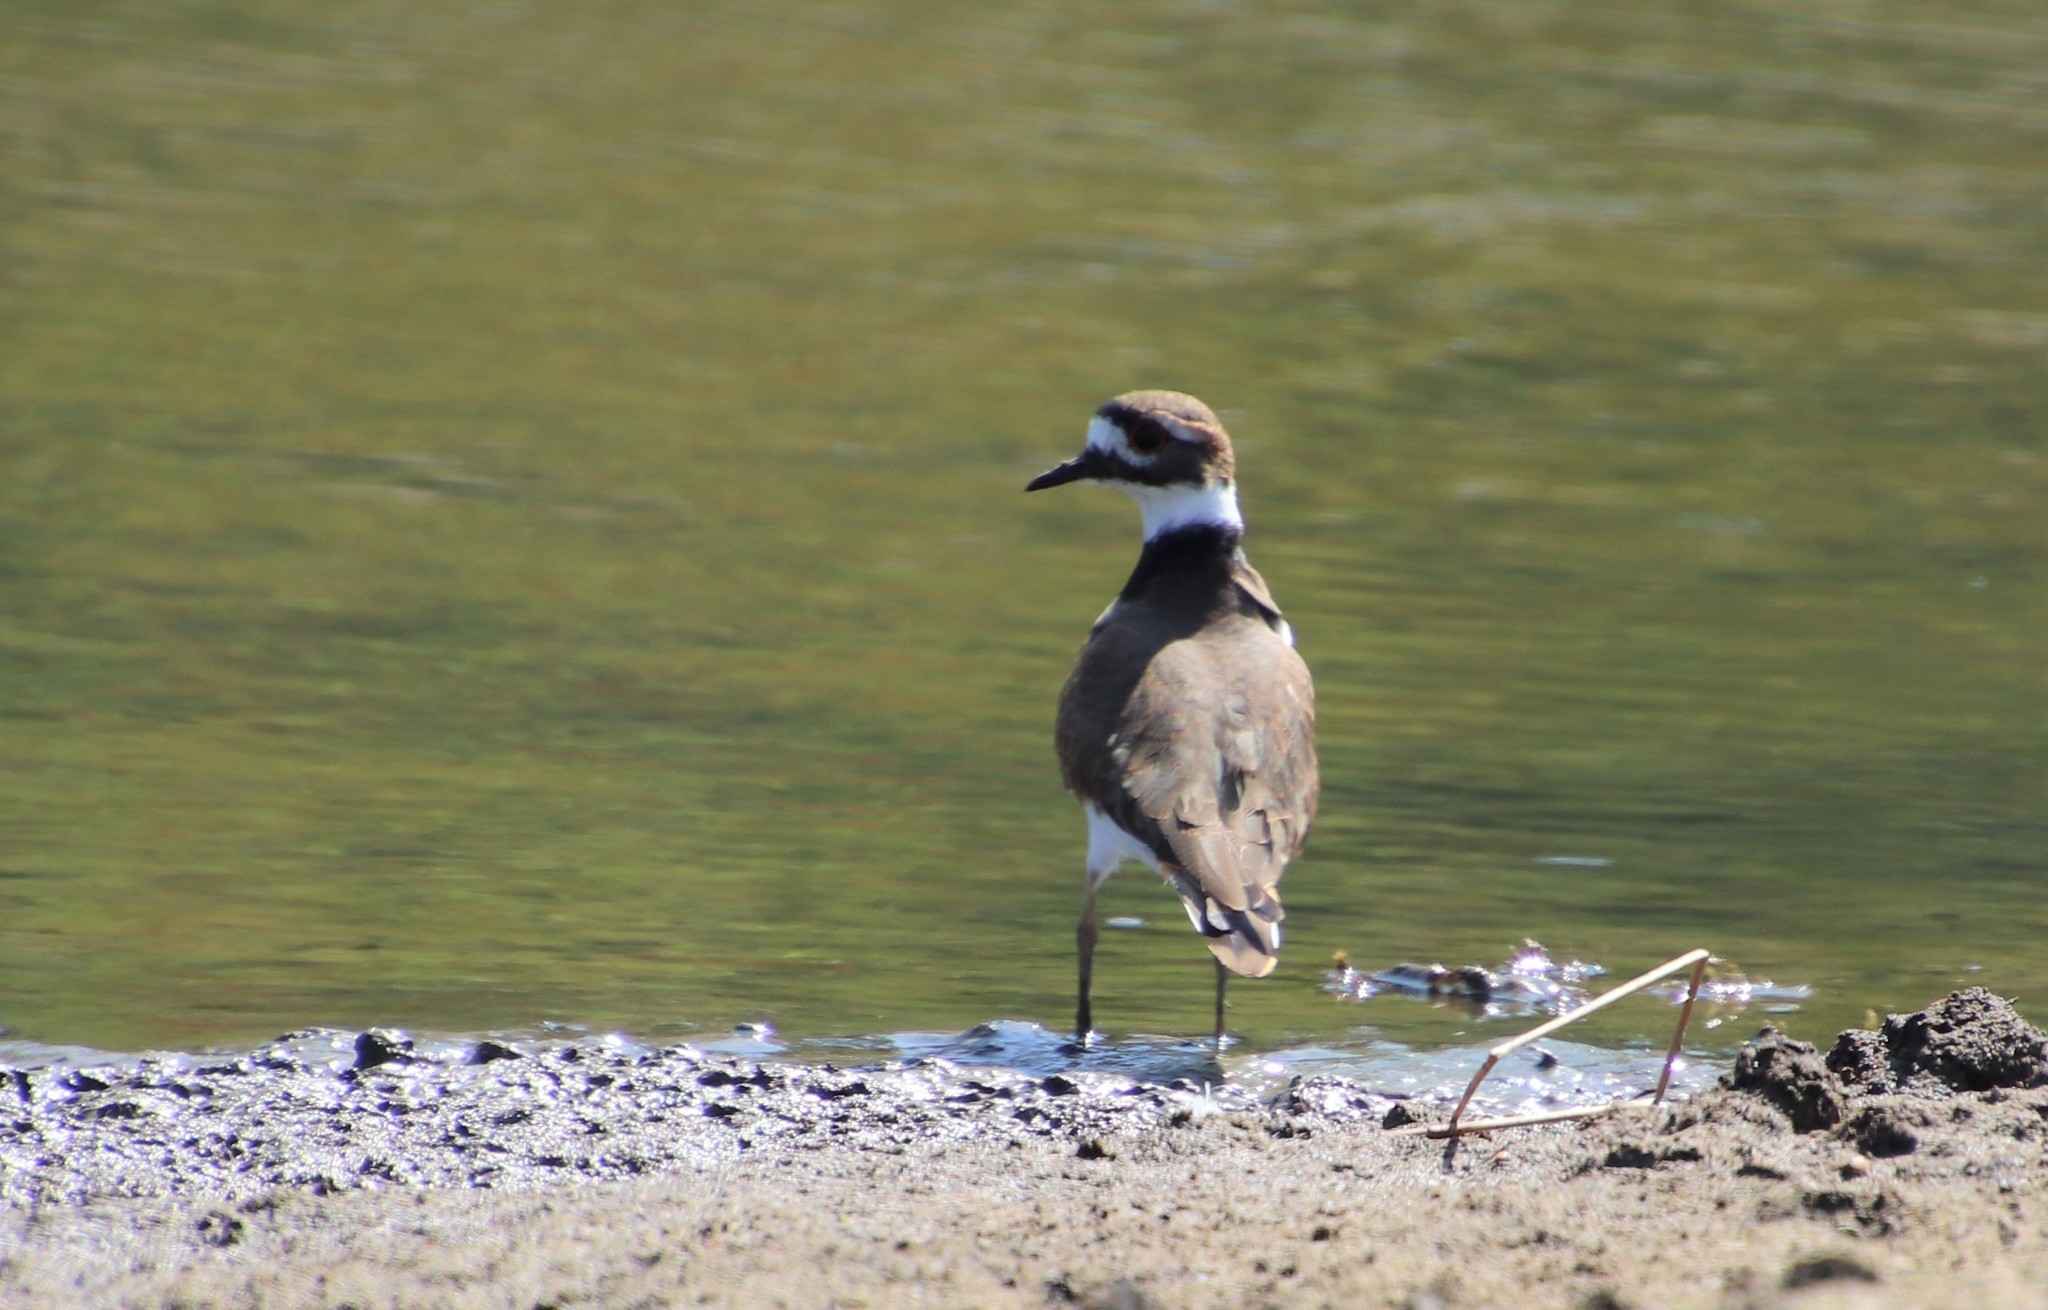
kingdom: Animalia
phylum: Chordata
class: Aves
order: Charadriiformes
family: Charadriidae
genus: Charadrius
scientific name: Charadrius vociferus
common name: Killdeer
